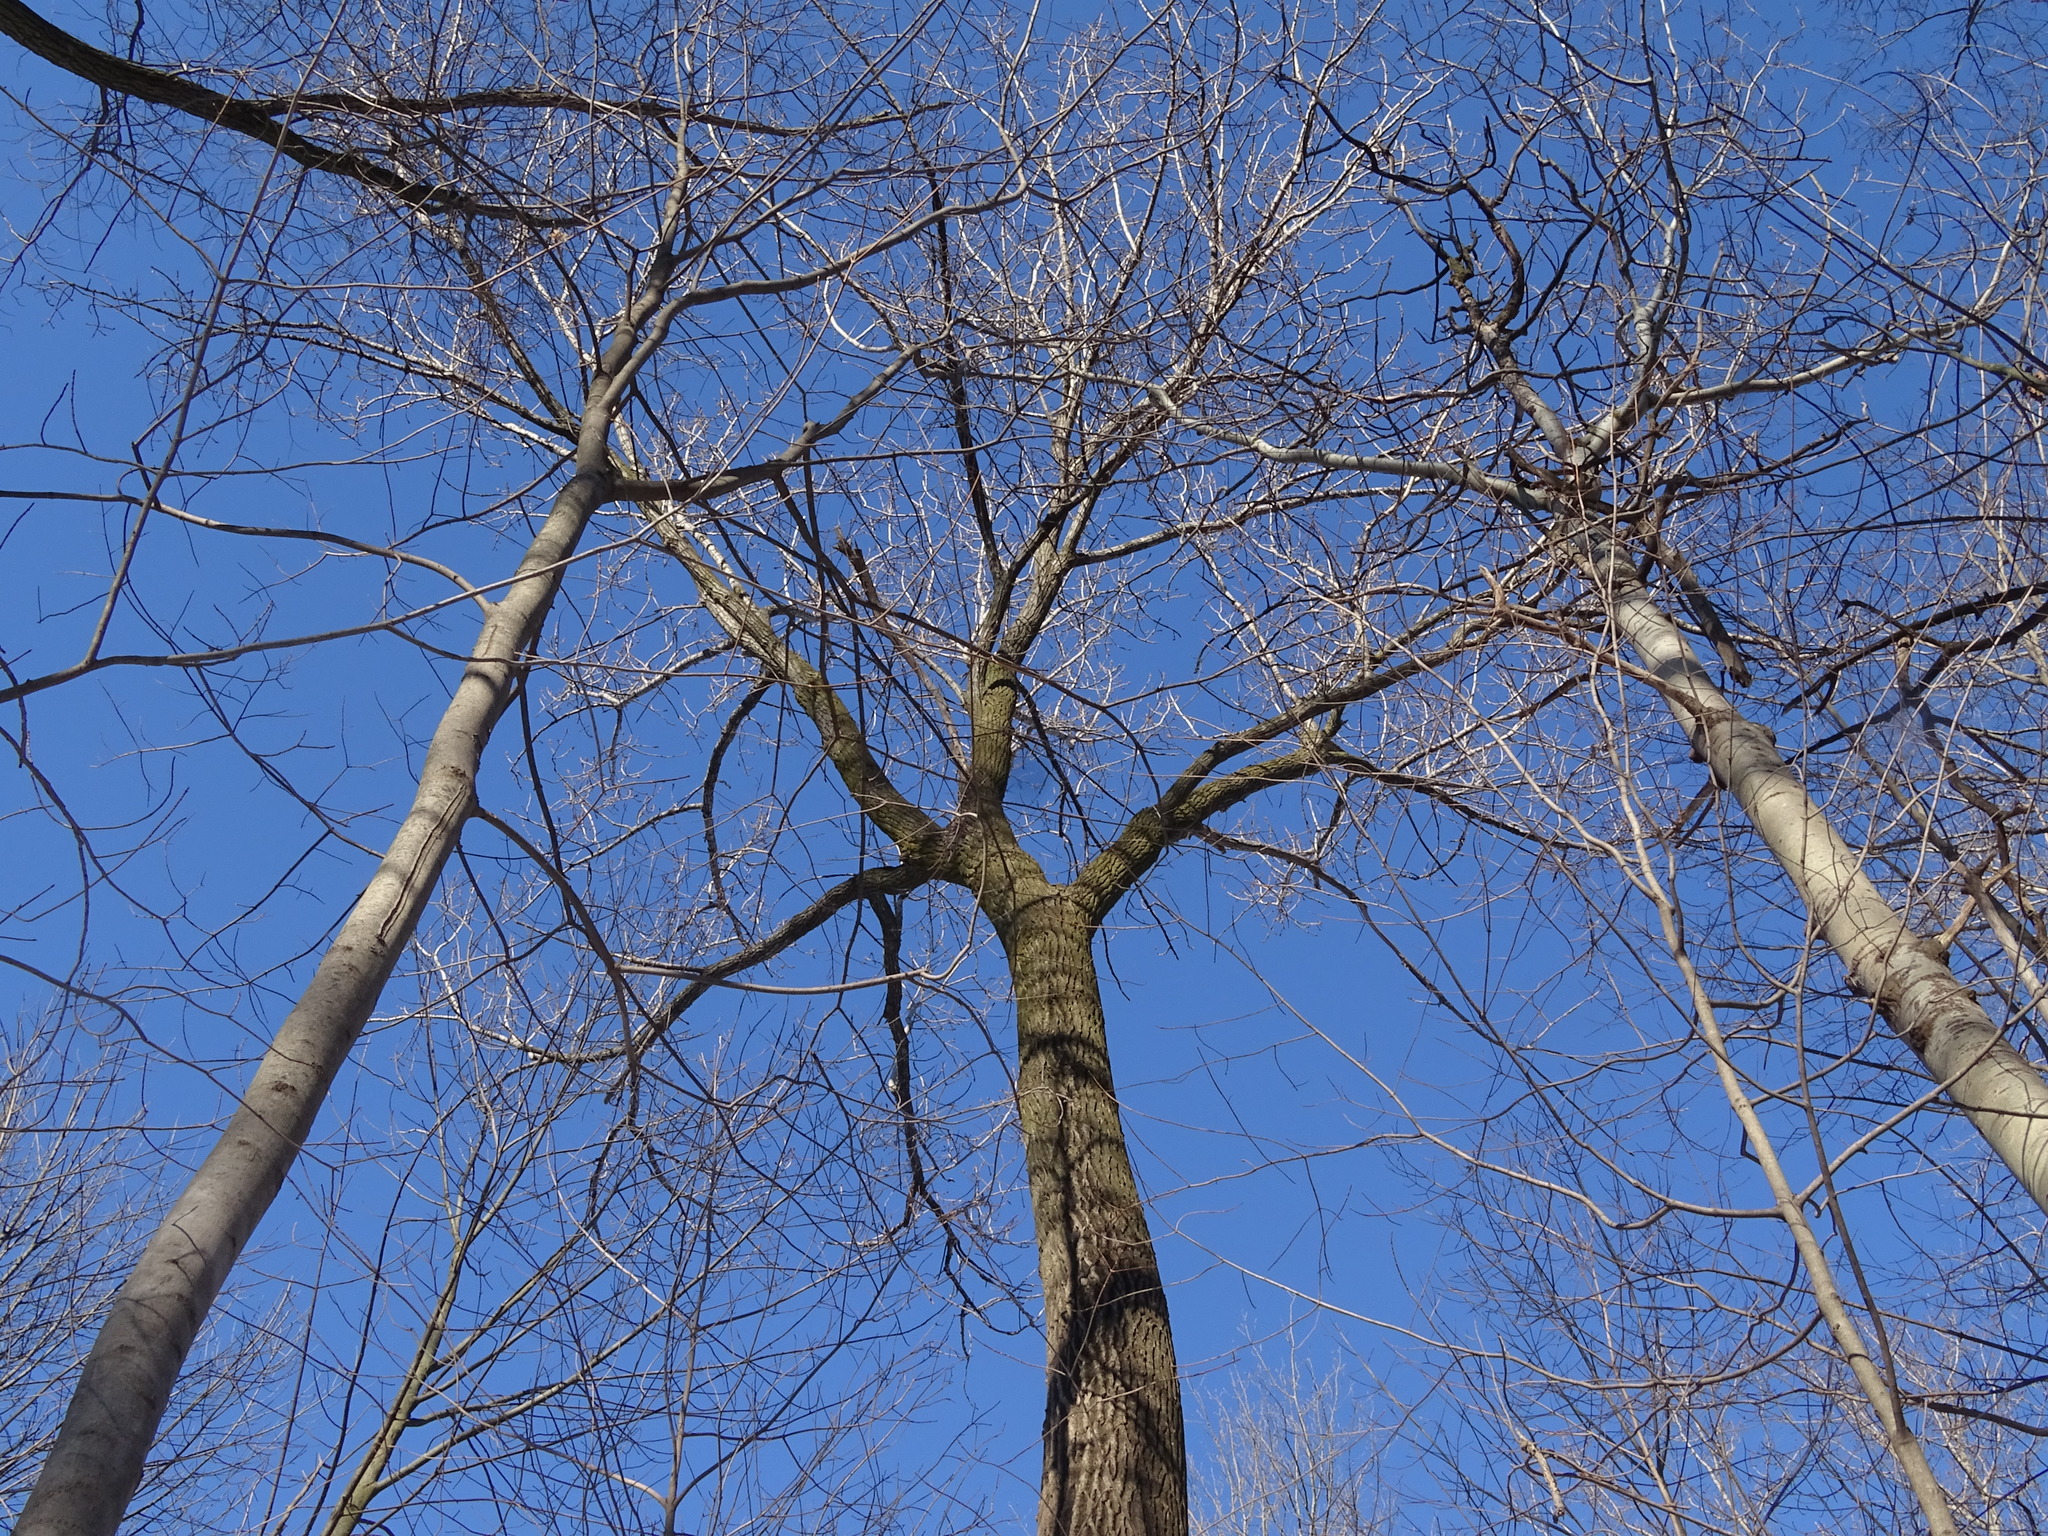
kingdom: Plantae
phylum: Tracheophyta
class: Magnoliopsida
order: Malpighiales
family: Salicaceae
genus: Populus
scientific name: Populus deltoides
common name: Eastern cottonwood
